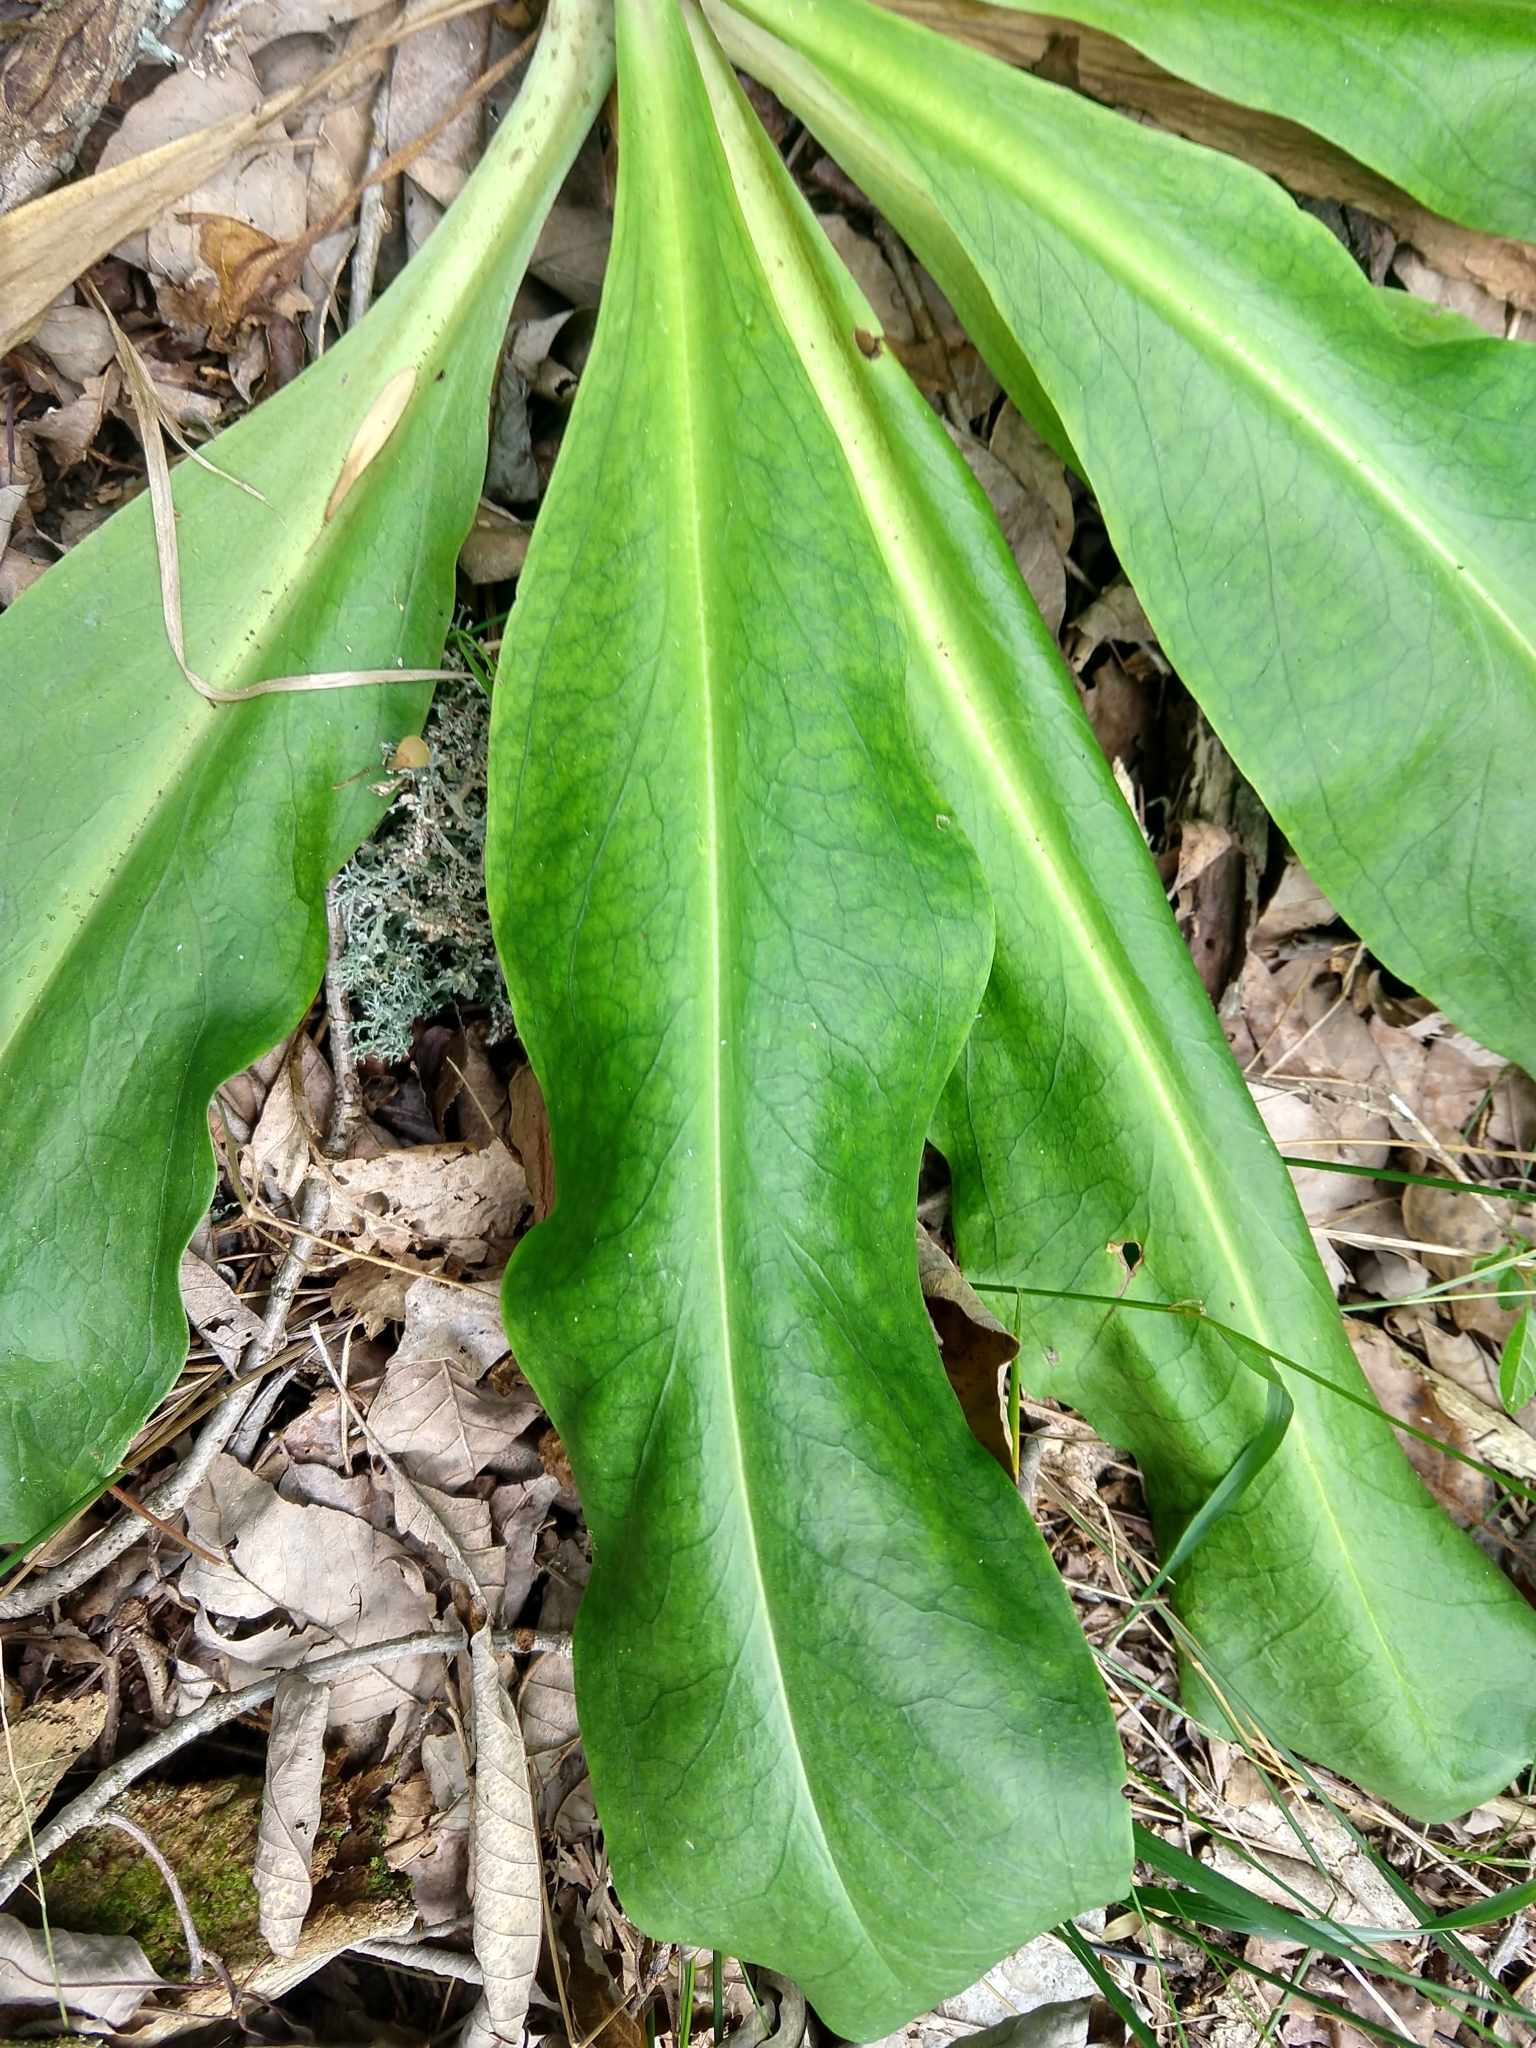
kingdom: Plantae
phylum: Tracheophyta
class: Magnoliopsida
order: Gentianales
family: Gentianaceae
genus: Frasera
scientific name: Frasera caroliniensis
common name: American columbo
